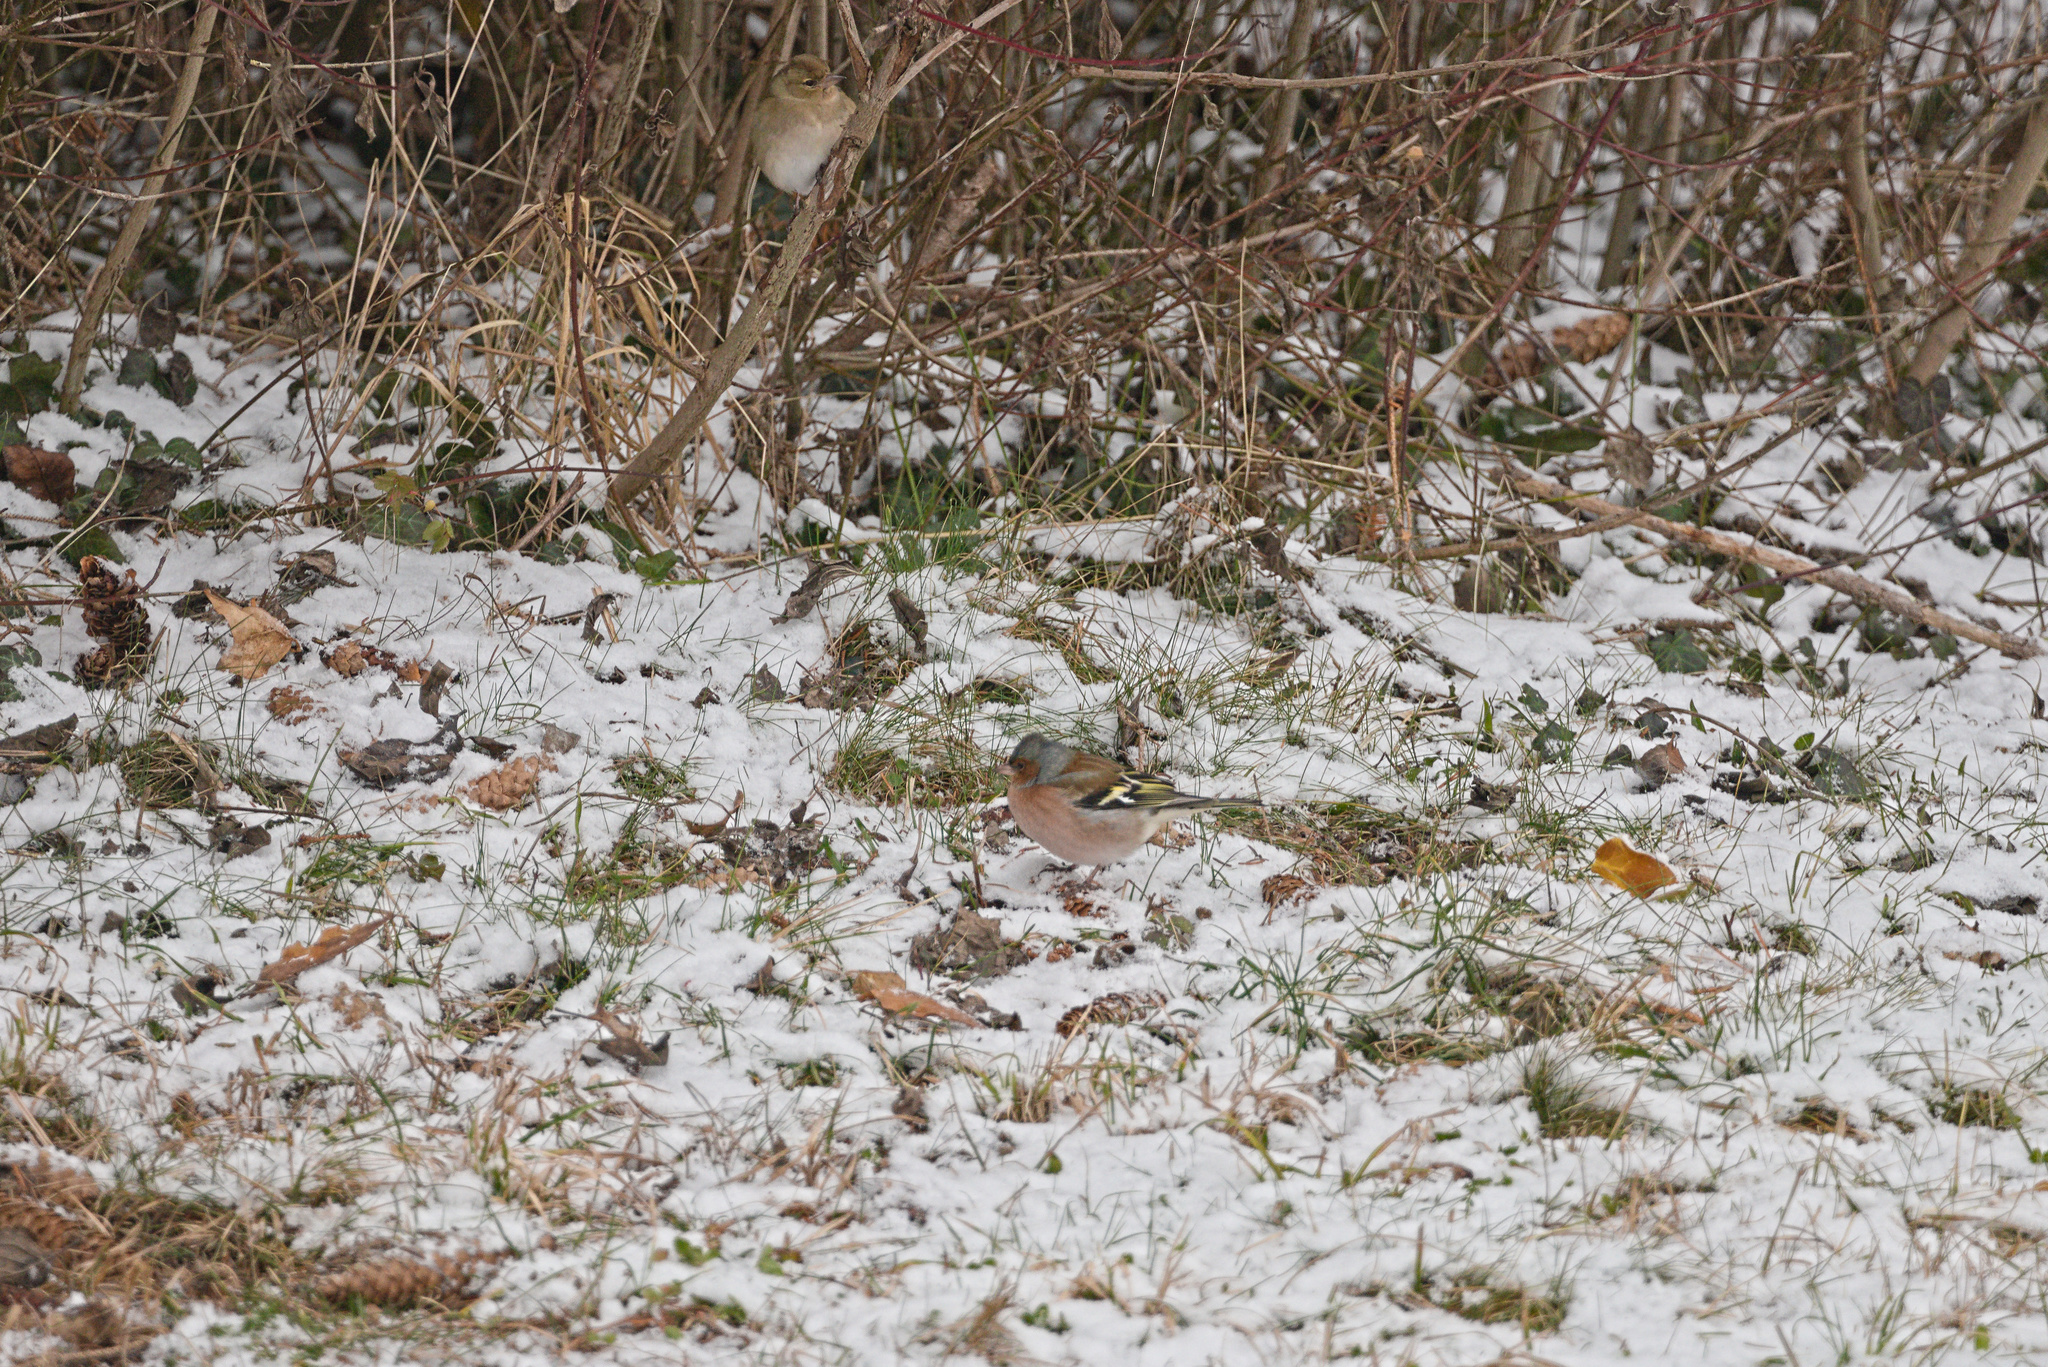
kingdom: Animalia
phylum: Chordata
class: Aves
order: Passeriformes
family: Fringillidae
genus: Fringilla
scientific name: Fringilla coelebs
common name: Common chaffinch
